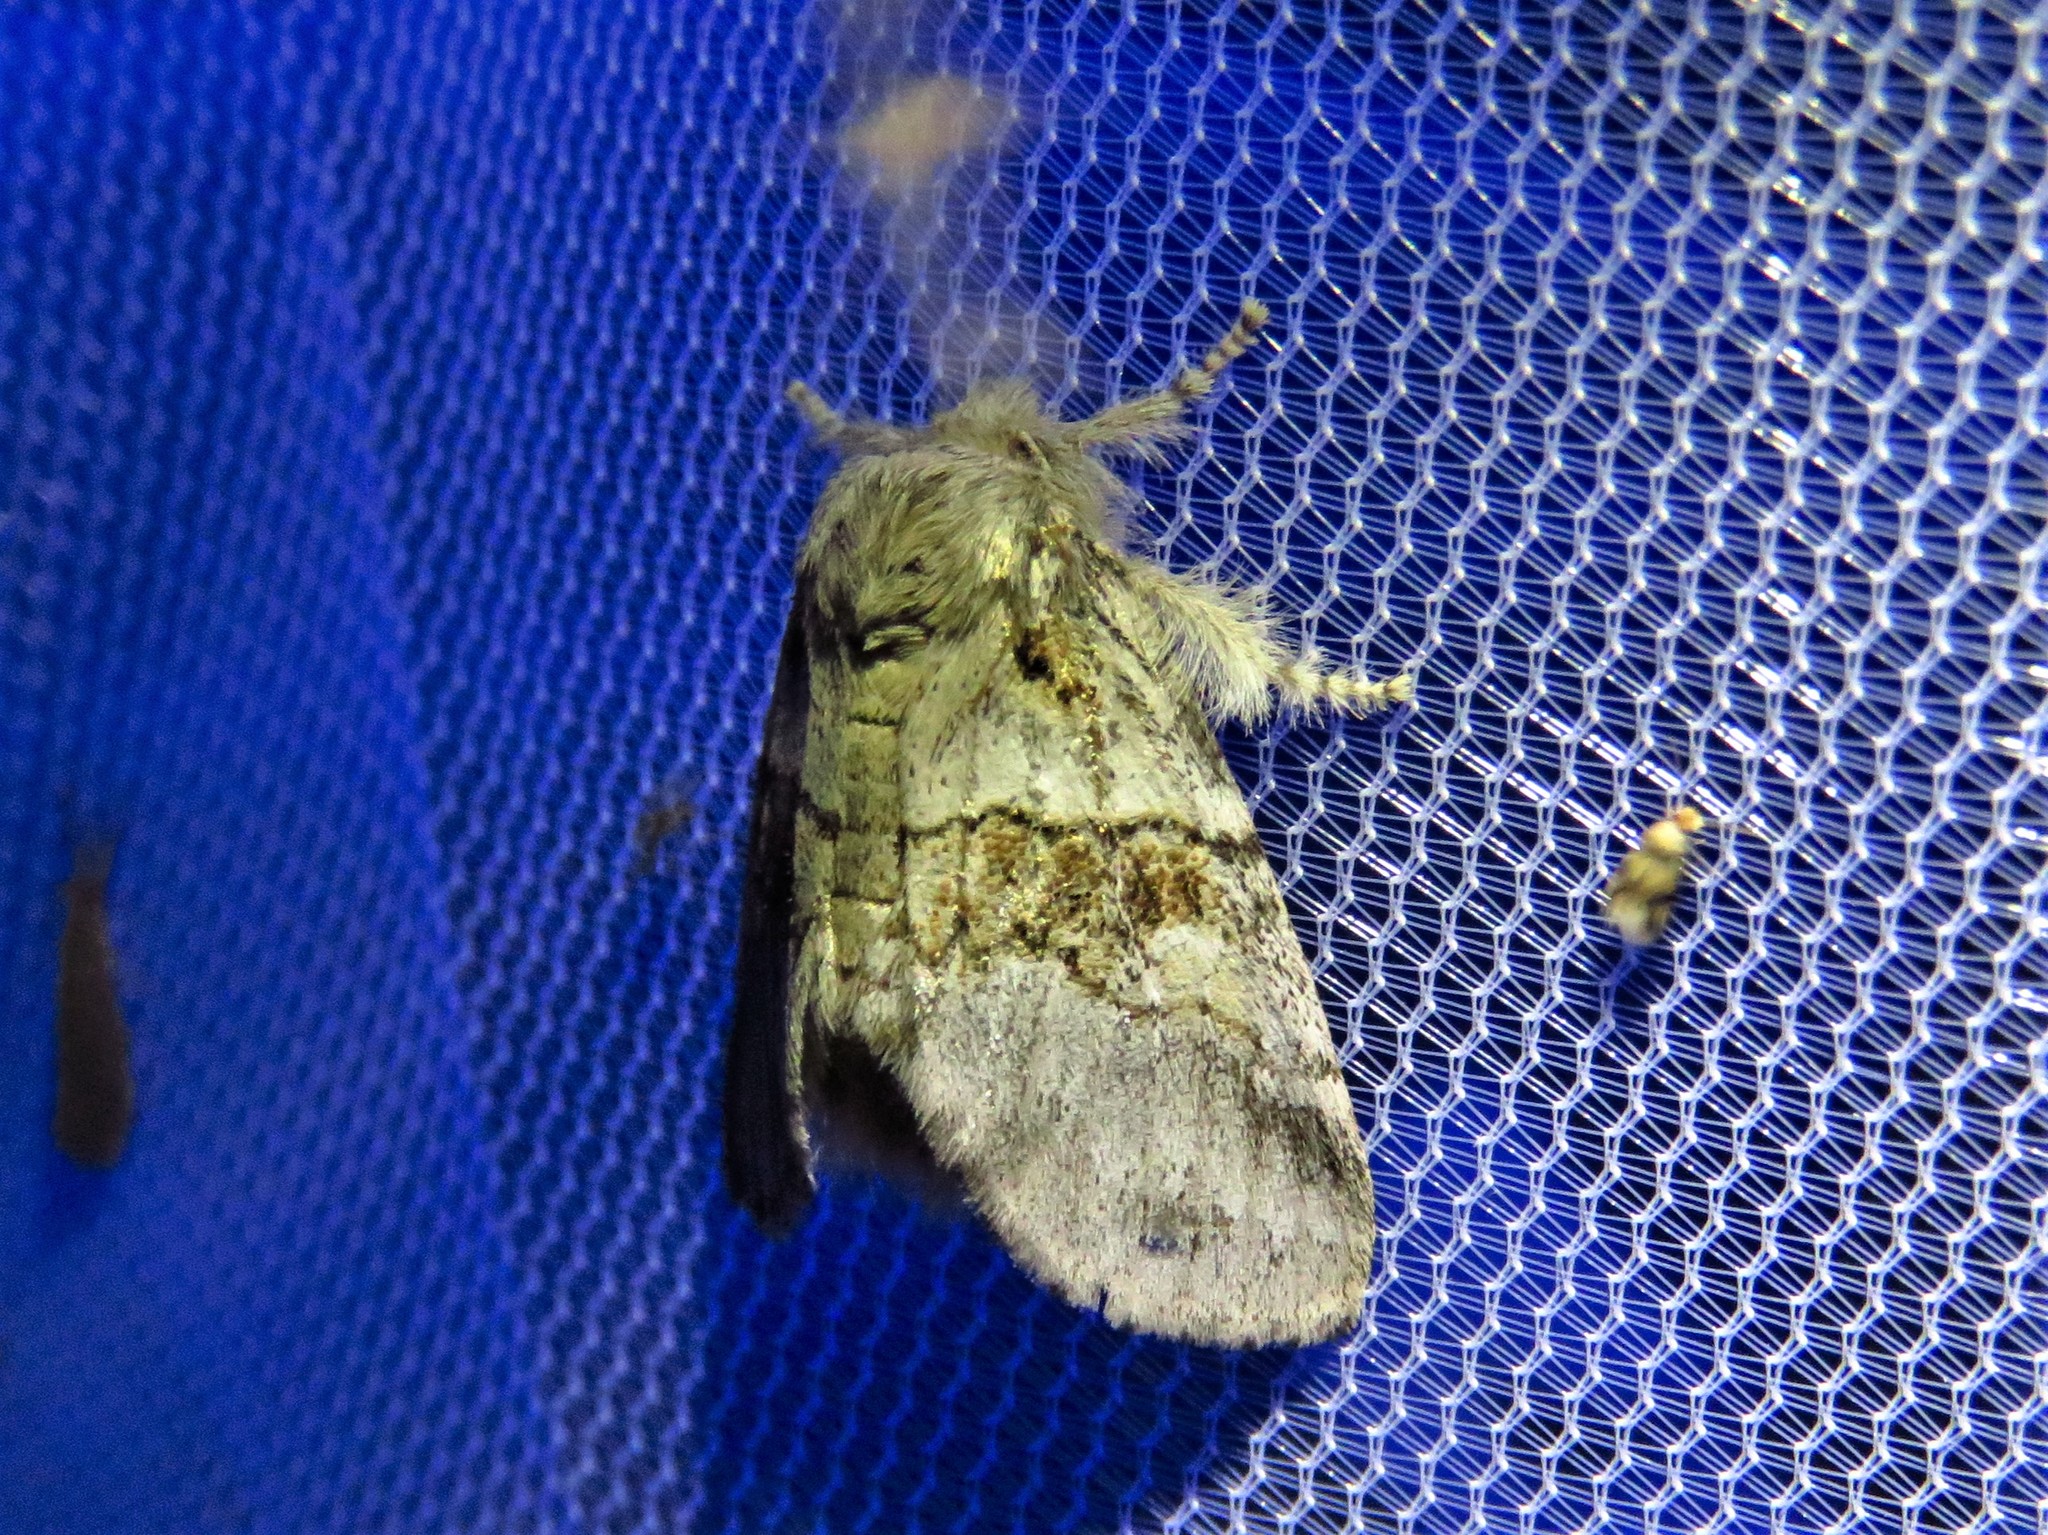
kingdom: Animalia
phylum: Arthropoda
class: Insecta
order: Lepidoptera
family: Notodontidae
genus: Gluphisia
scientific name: Gluphisia septentrionis
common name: Common gluphisia
